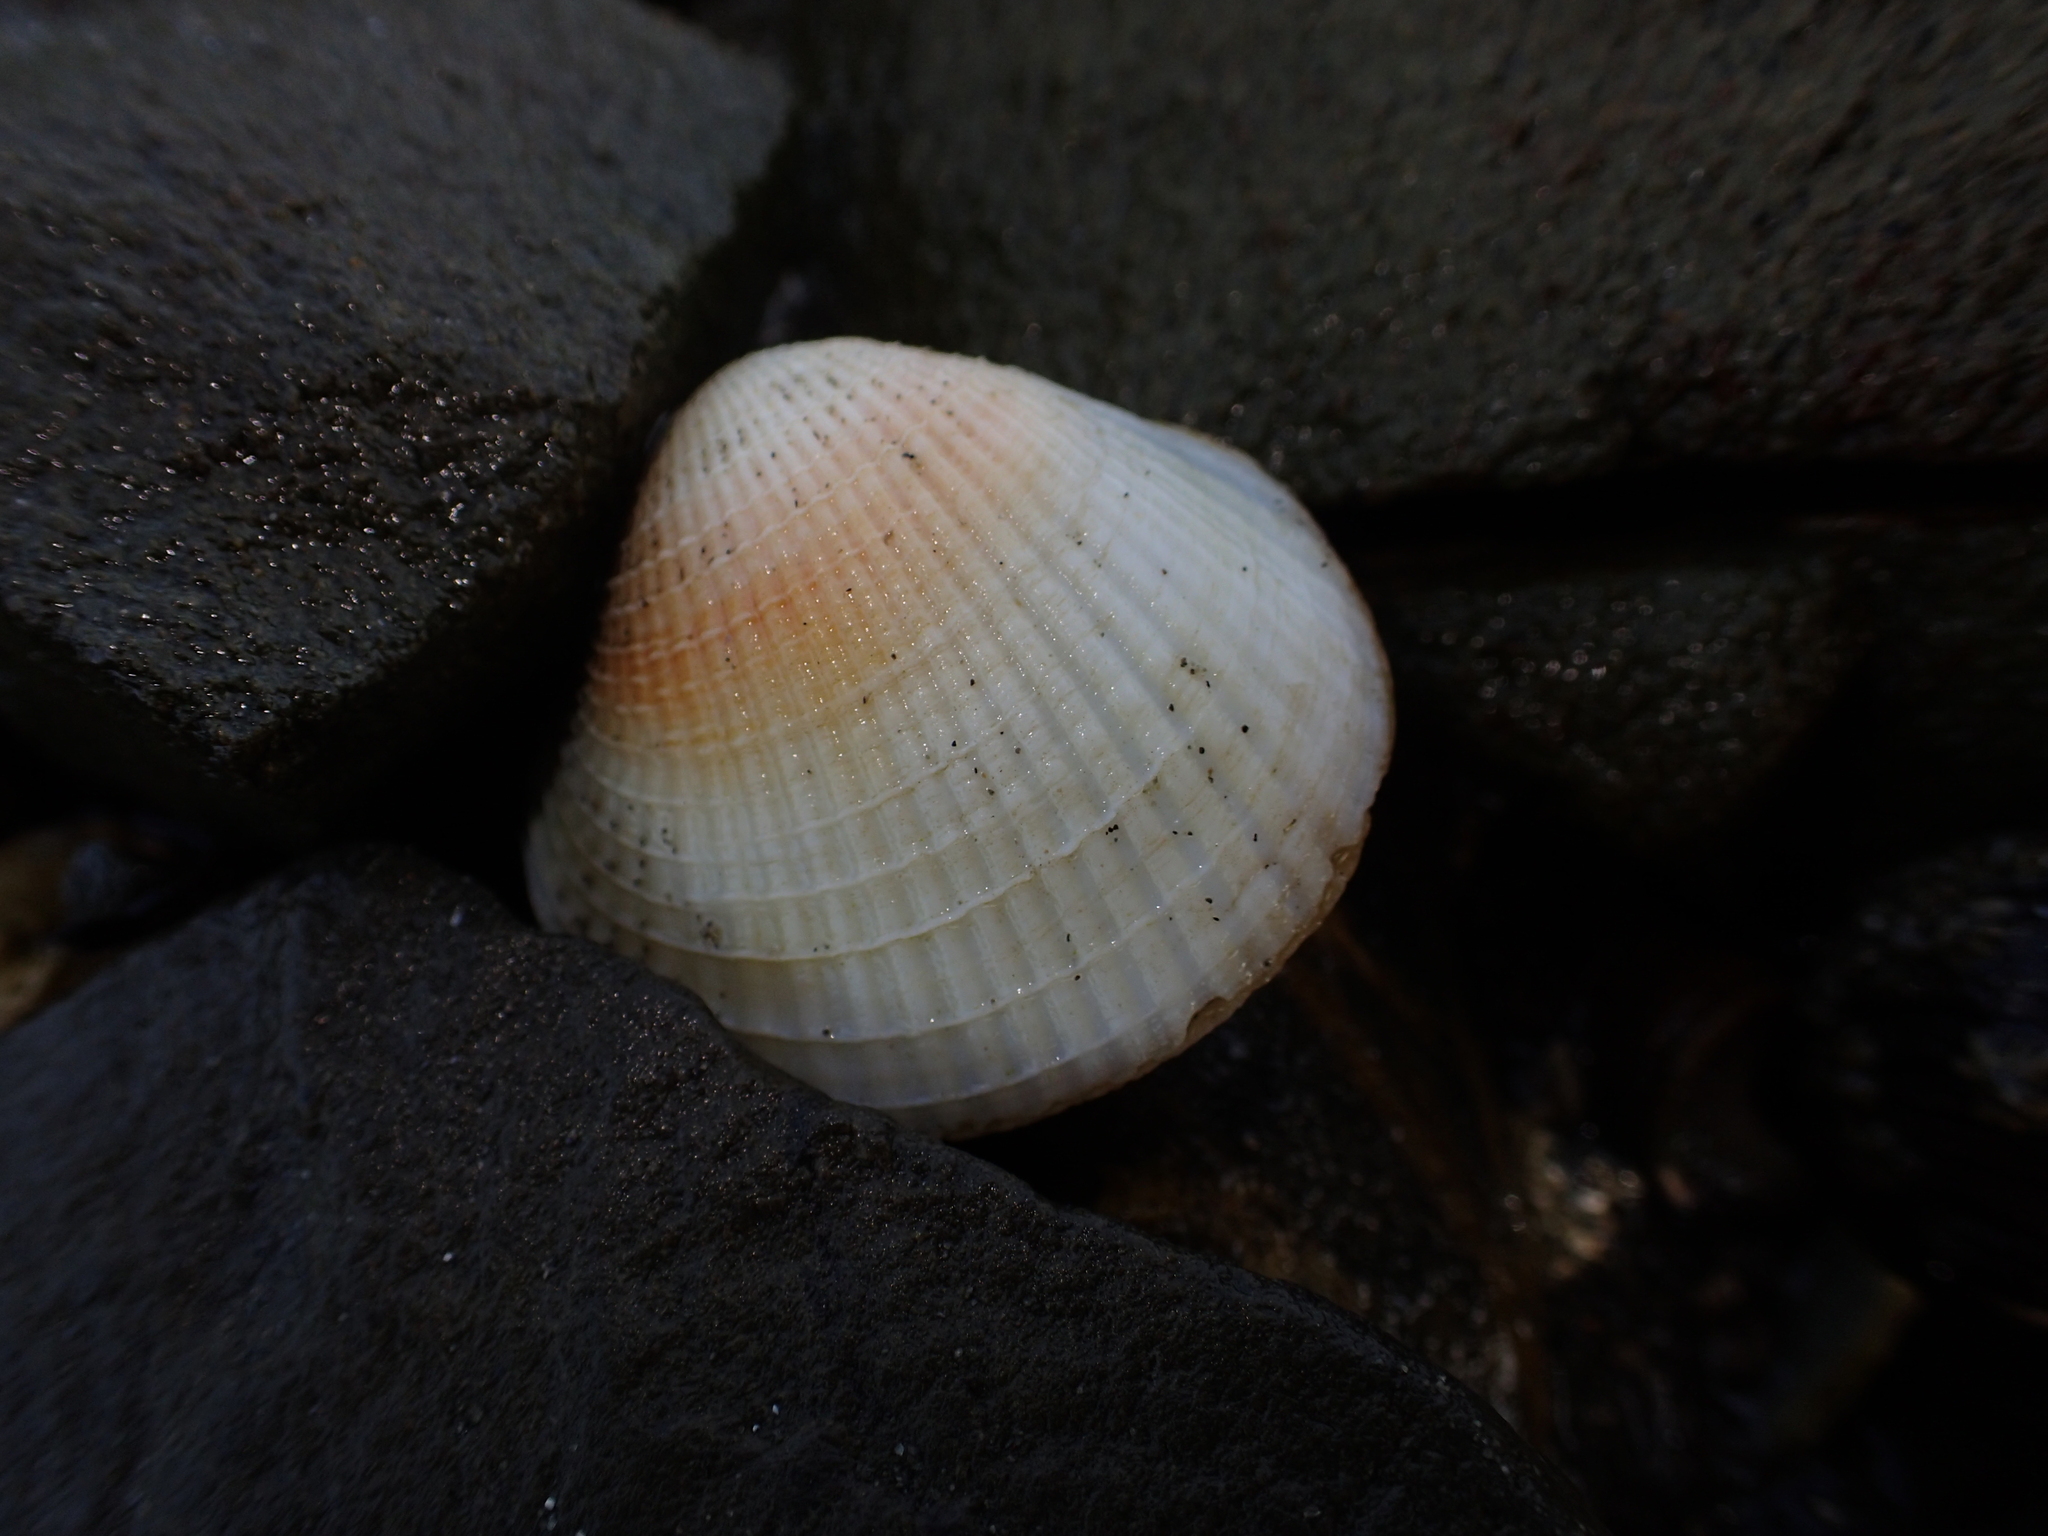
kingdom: Animalia
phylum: Mollusca
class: Bivalvia
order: Venerida
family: Veneridae
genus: Austrovenus
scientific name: Austrovenus stutchburyi
